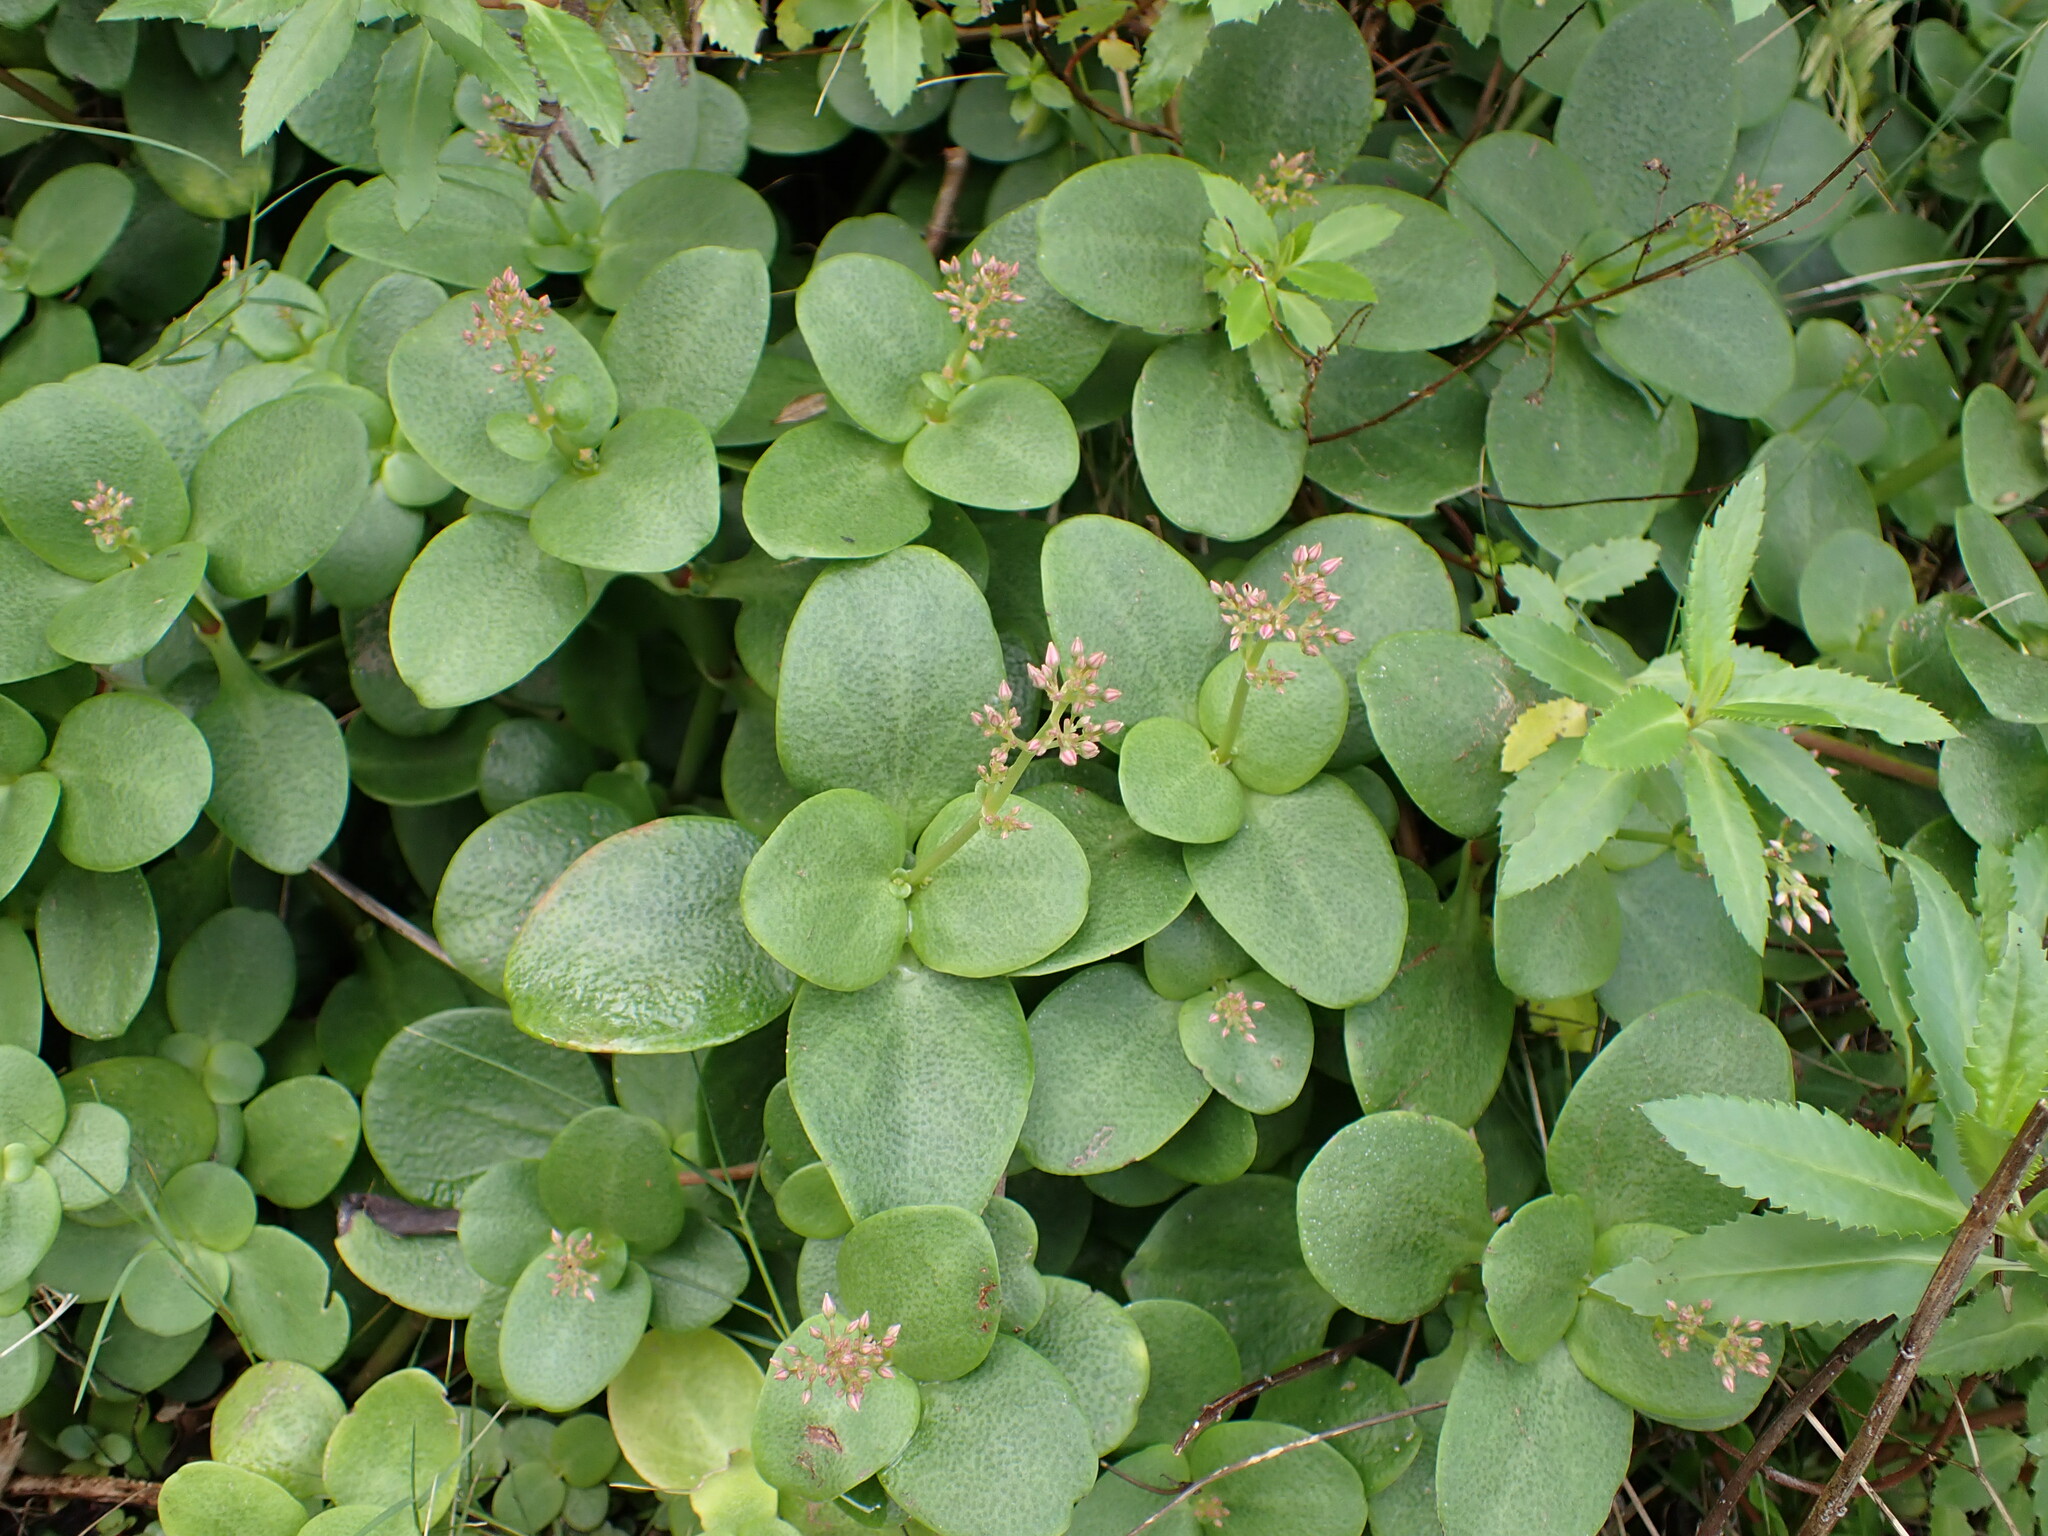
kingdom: Plantae
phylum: Tracheophyta
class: Magnoliopsida
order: Saxifragales
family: Crassulaceae
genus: Crassula
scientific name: Crassula multicava
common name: Cape province pygmyweed
